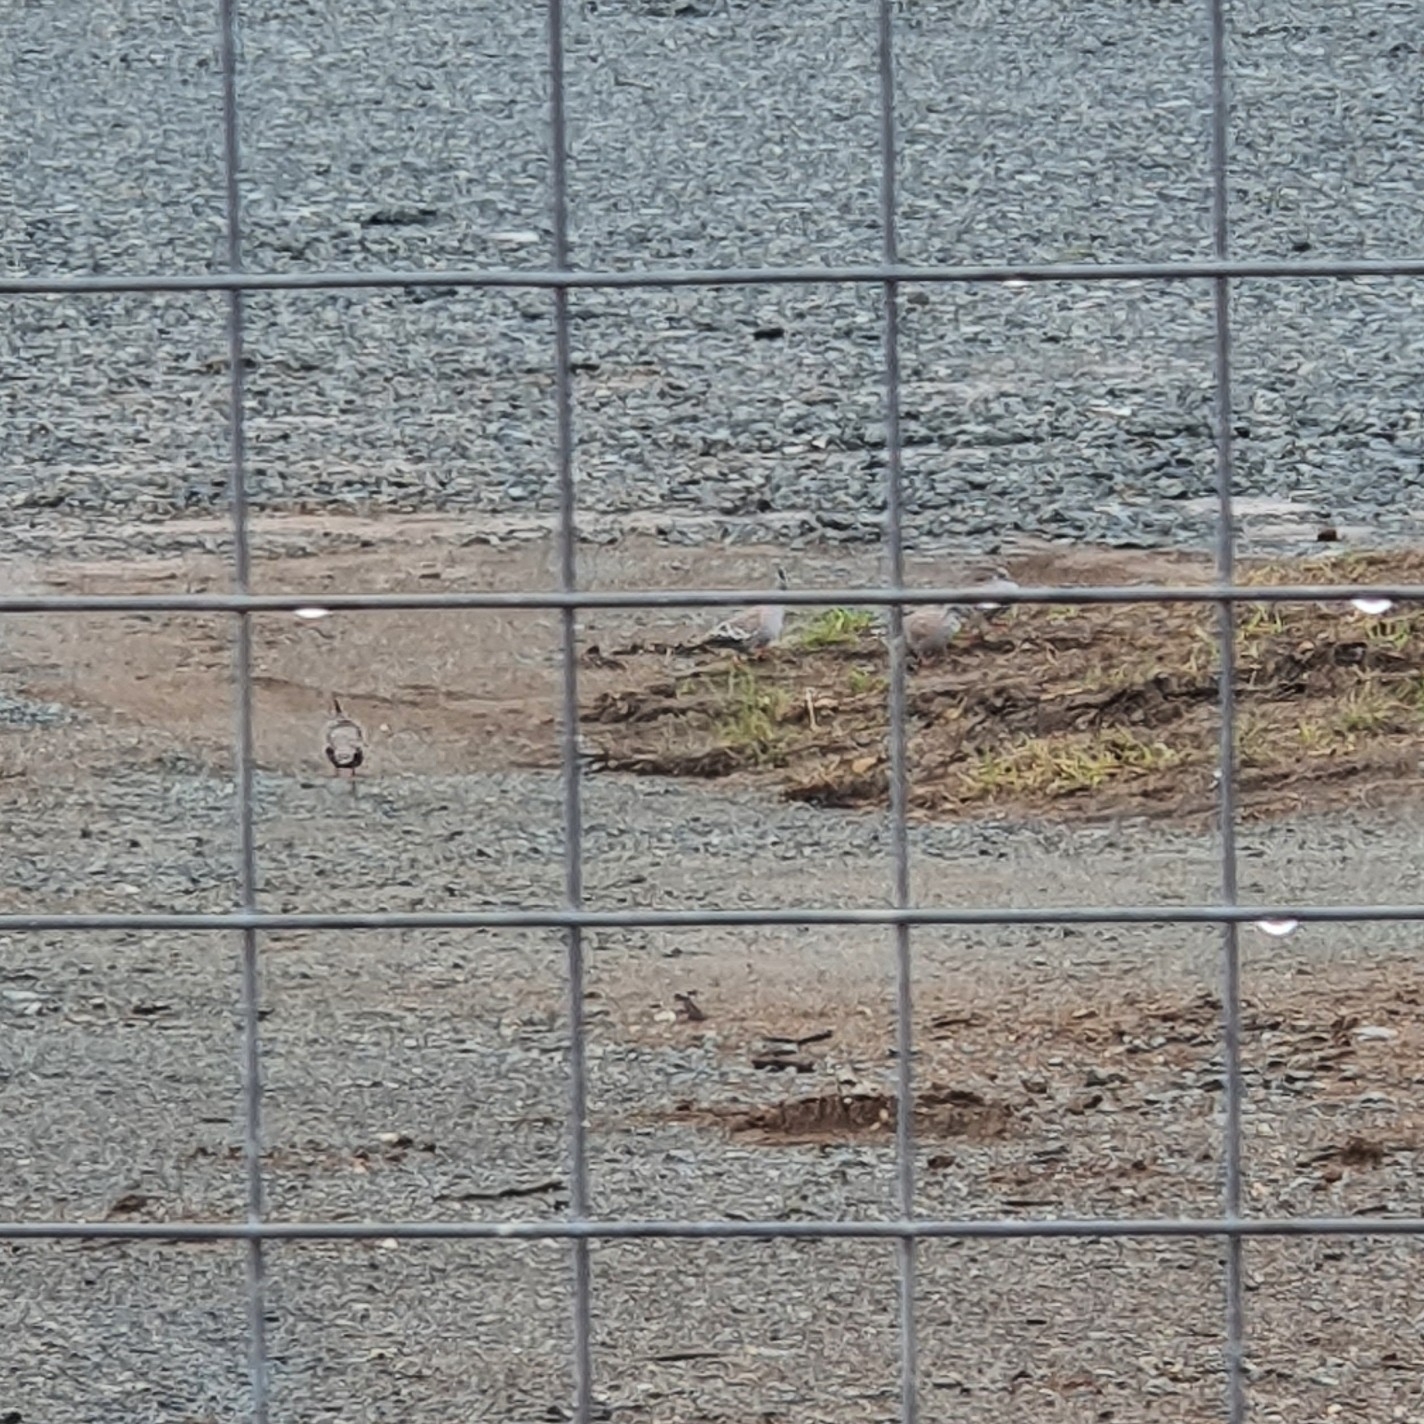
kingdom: Animalia
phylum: Chordata
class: Aves
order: Columbiformes
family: Columbidae
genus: Ocyphaps
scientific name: Ocyphaps lophotes
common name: Crested pigeon
